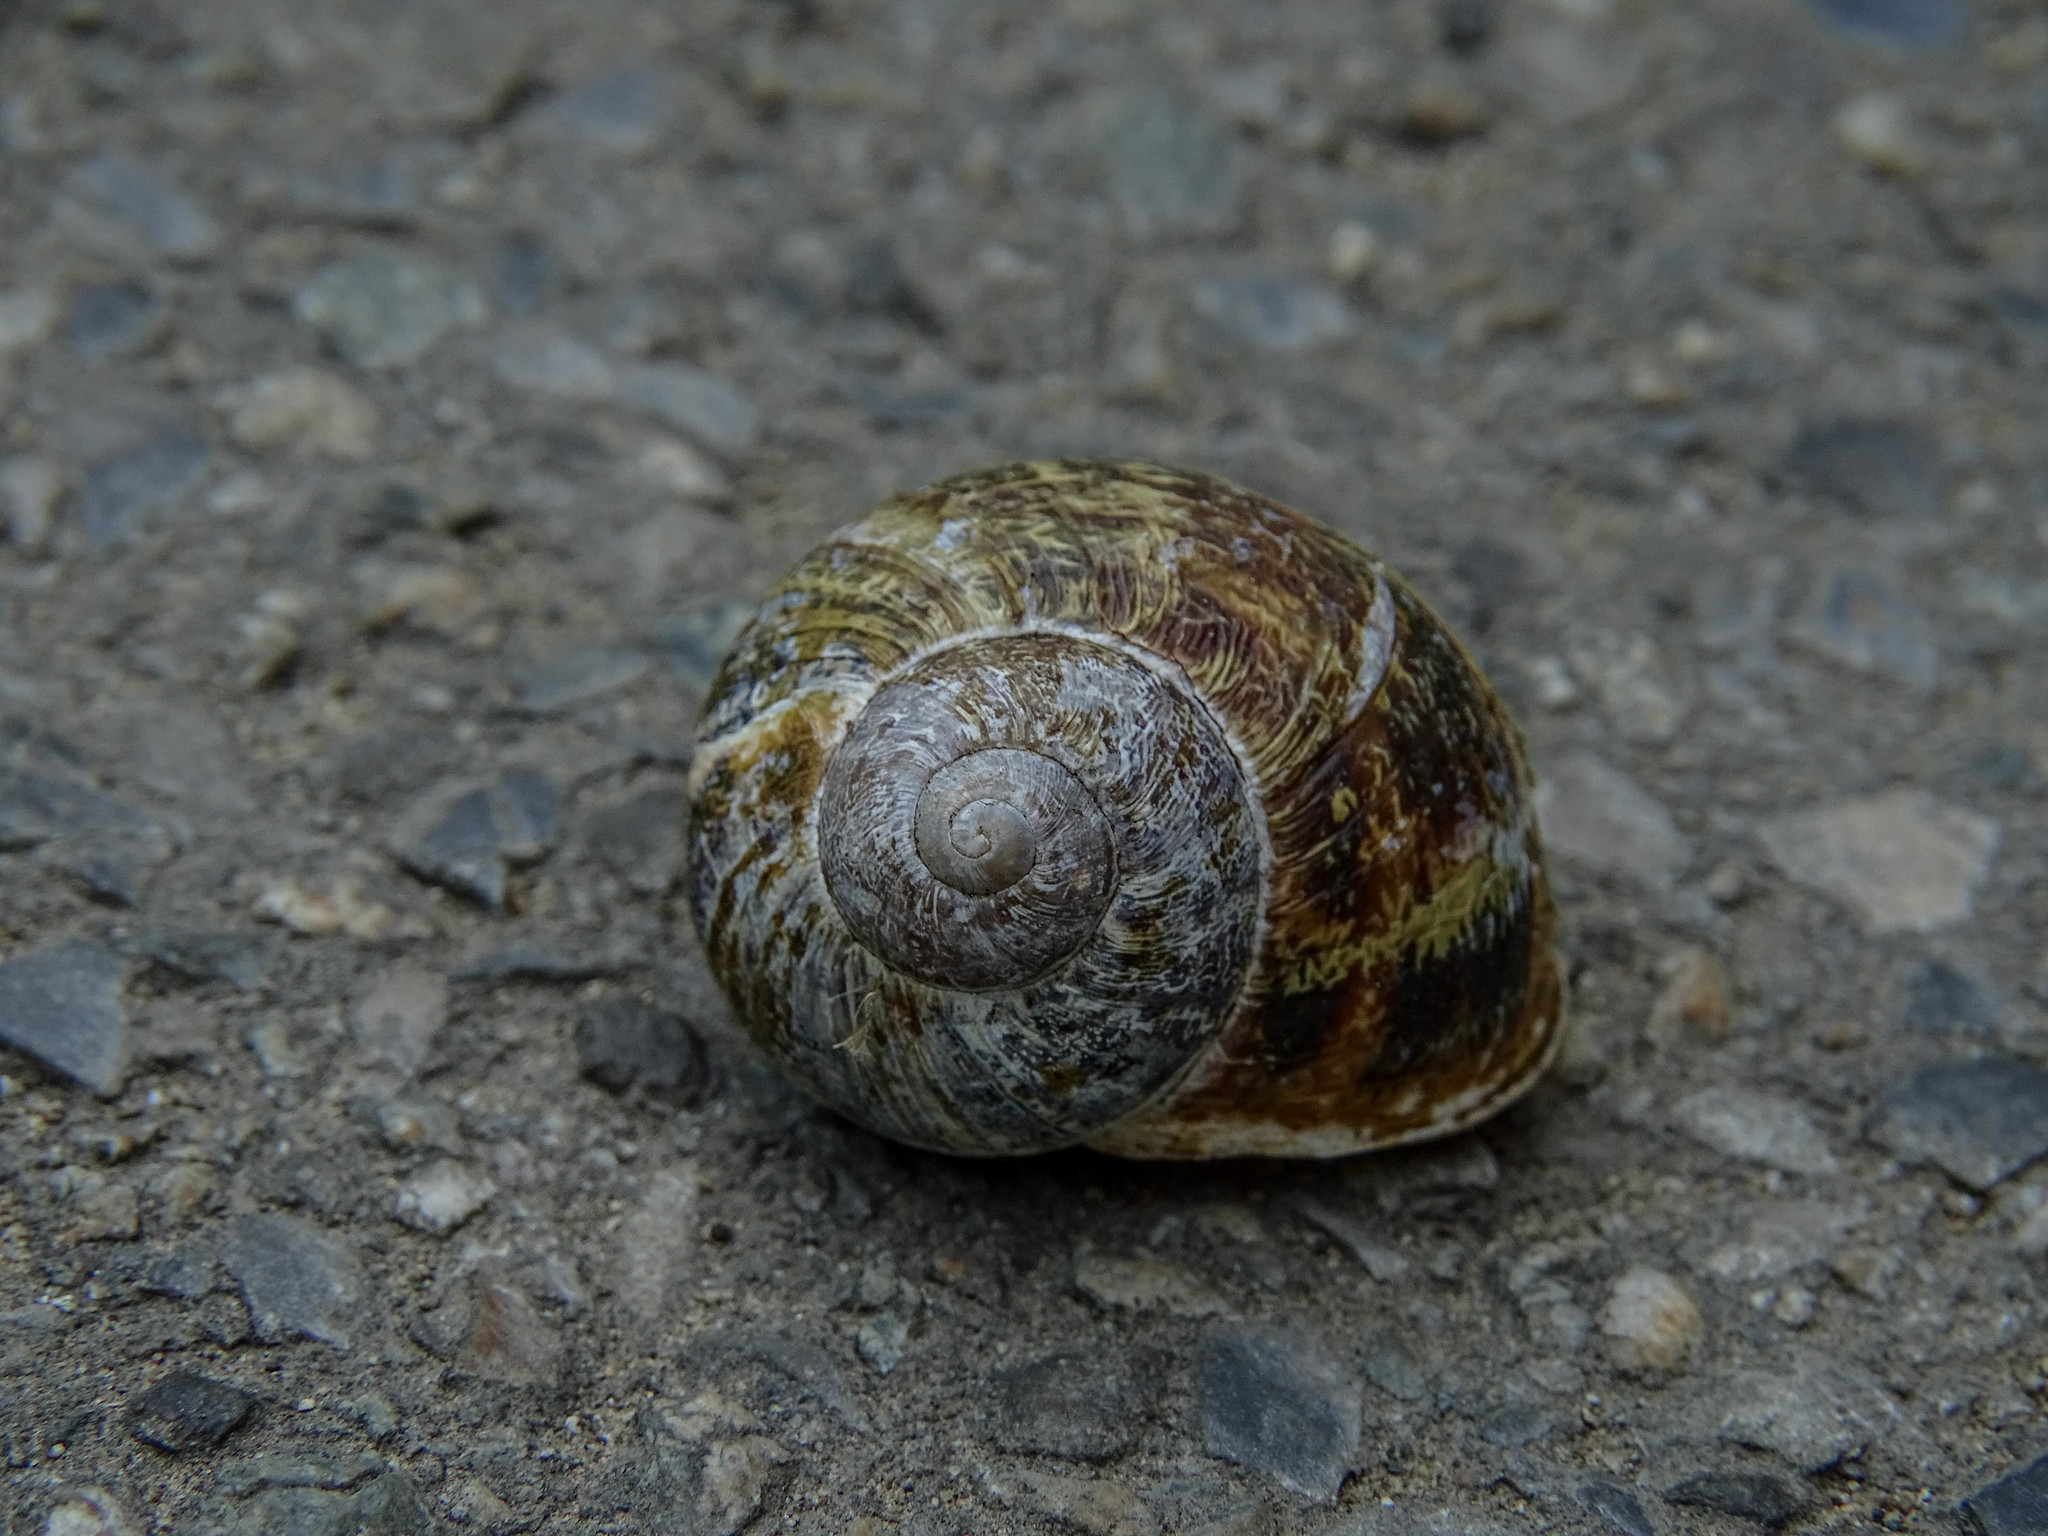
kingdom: Animalia
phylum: Mollusca
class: Gastropoda
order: Stylommatophora
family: Helicidae
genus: Cornu
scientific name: Cornu aspersum
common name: Brown garden snail
